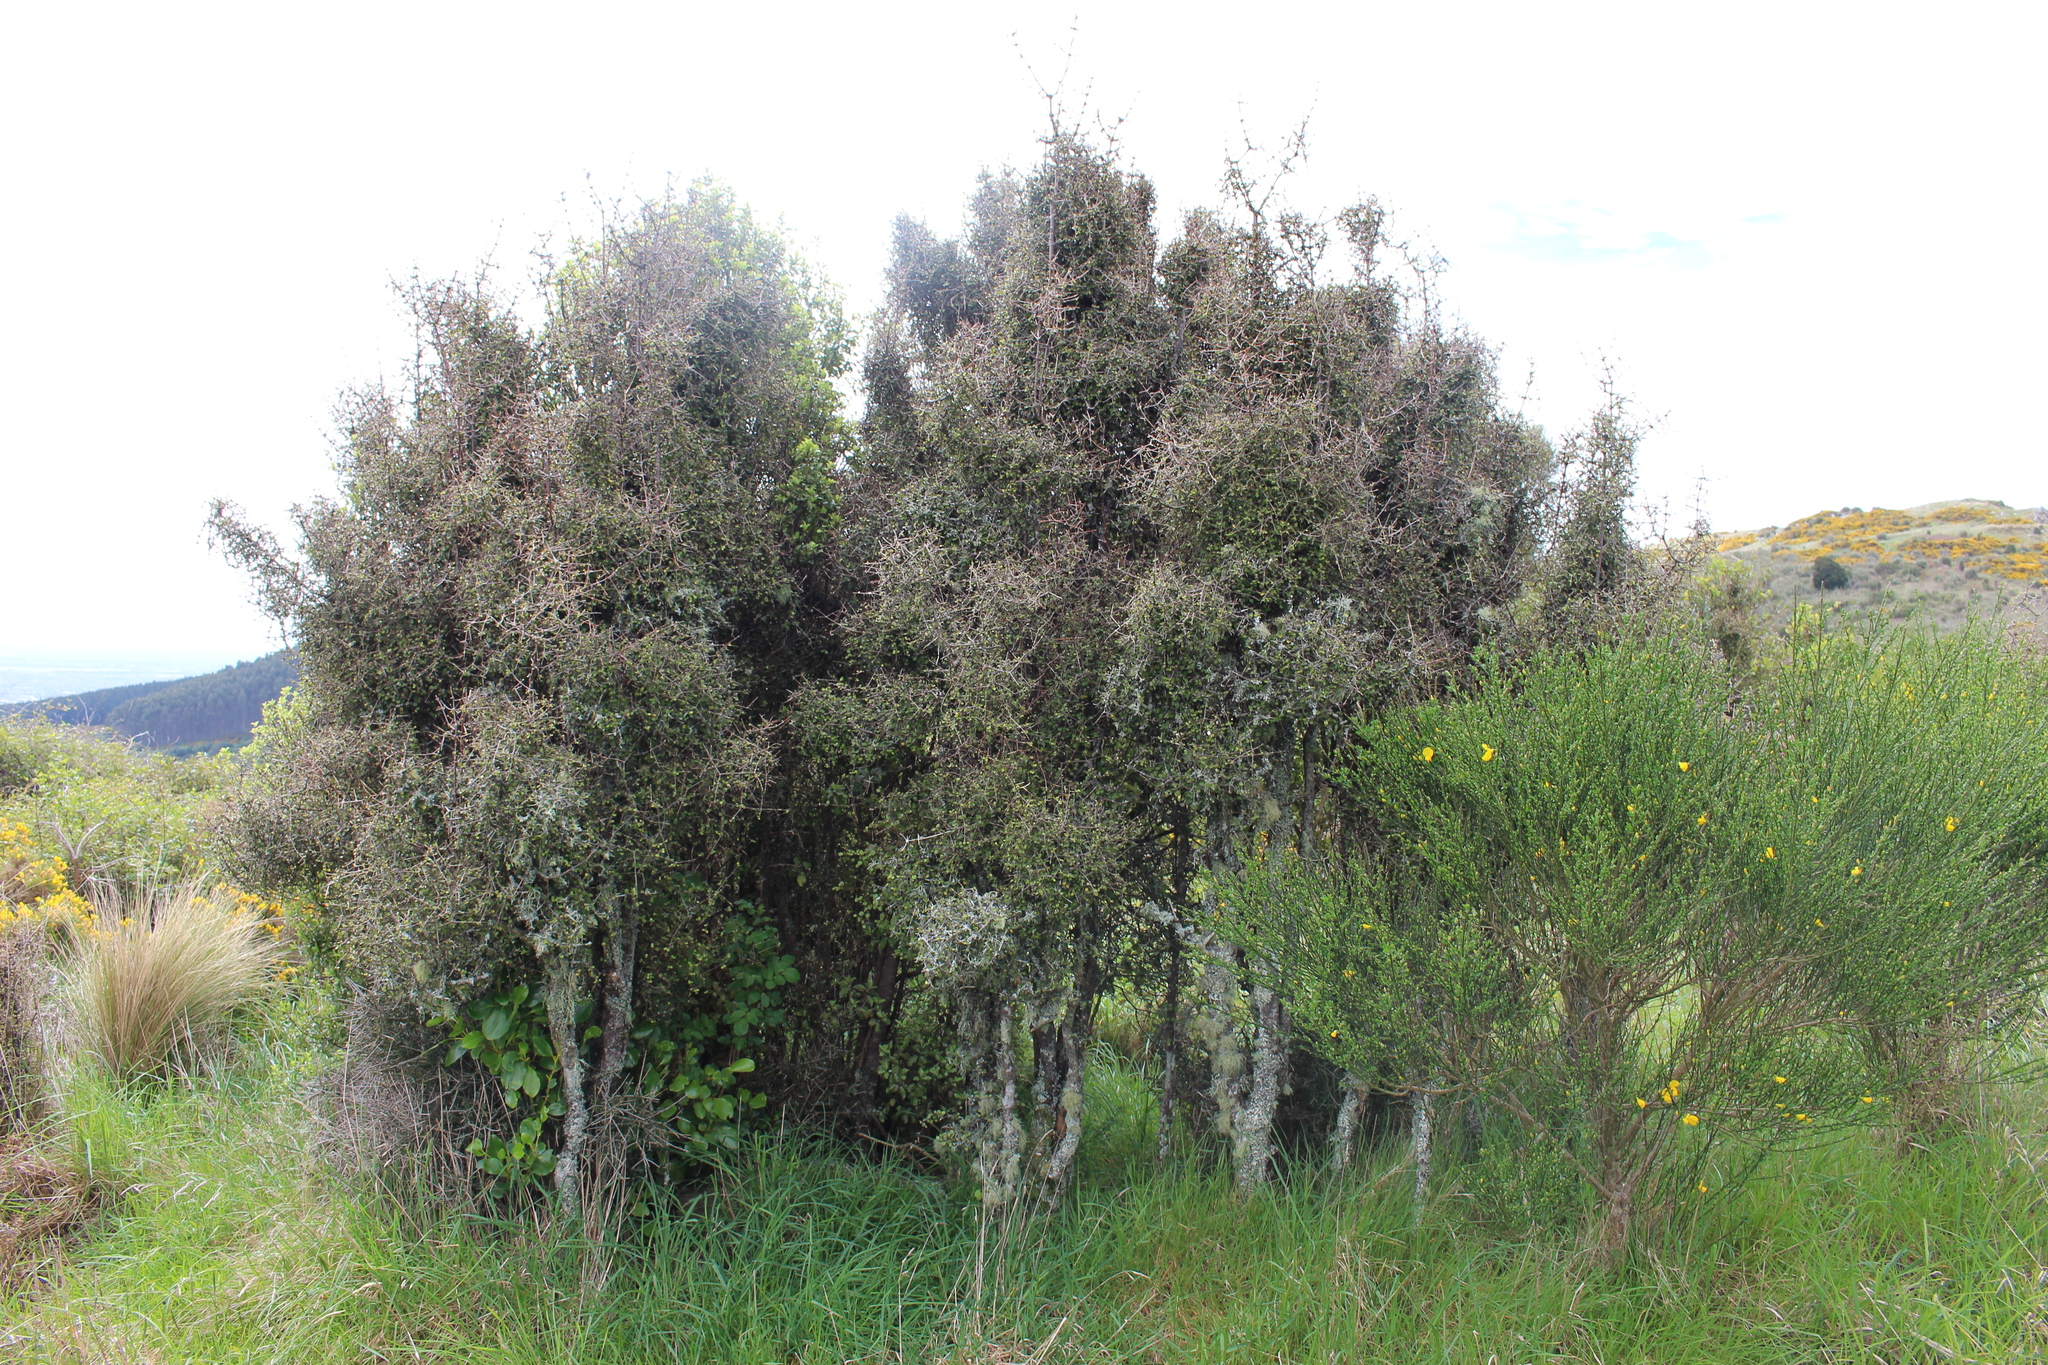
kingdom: Plantae
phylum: Tracheophyta
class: Magnoliopsida
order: Gentianales
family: Rubiaceae
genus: Coprosma
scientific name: Coprosma crassifolia
